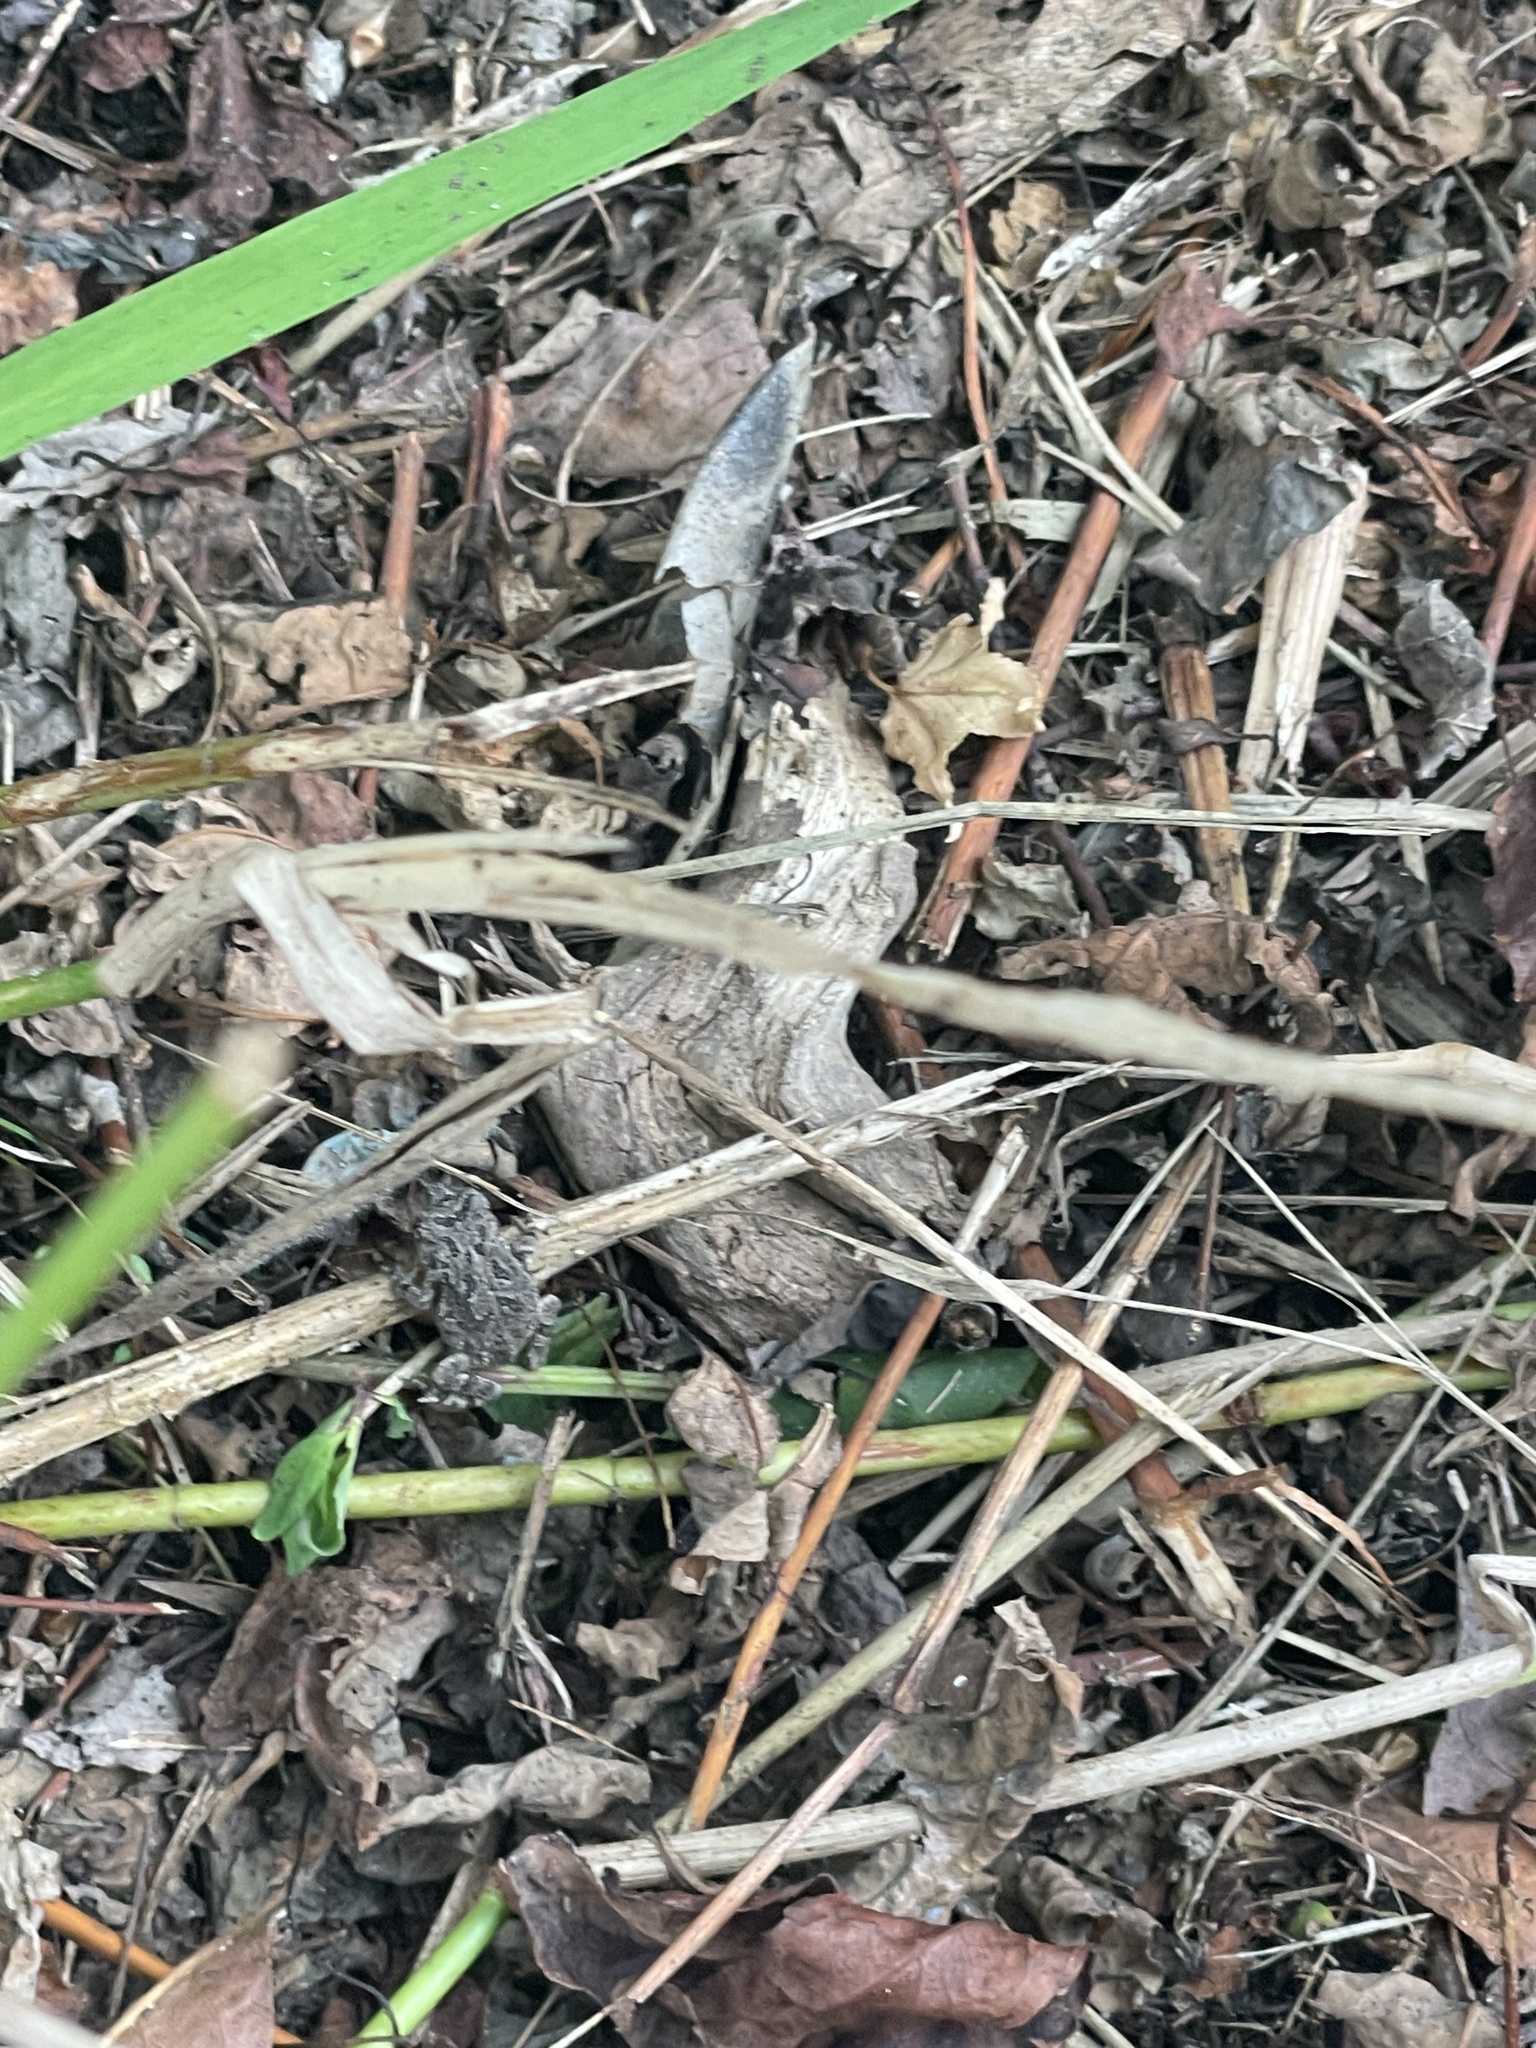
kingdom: Animalia
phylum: Chordata
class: Amphibia
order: Anura
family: Bufonidae
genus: Anaxyrus
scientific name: Anaxyrus fowleri
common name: Fowler's toad
